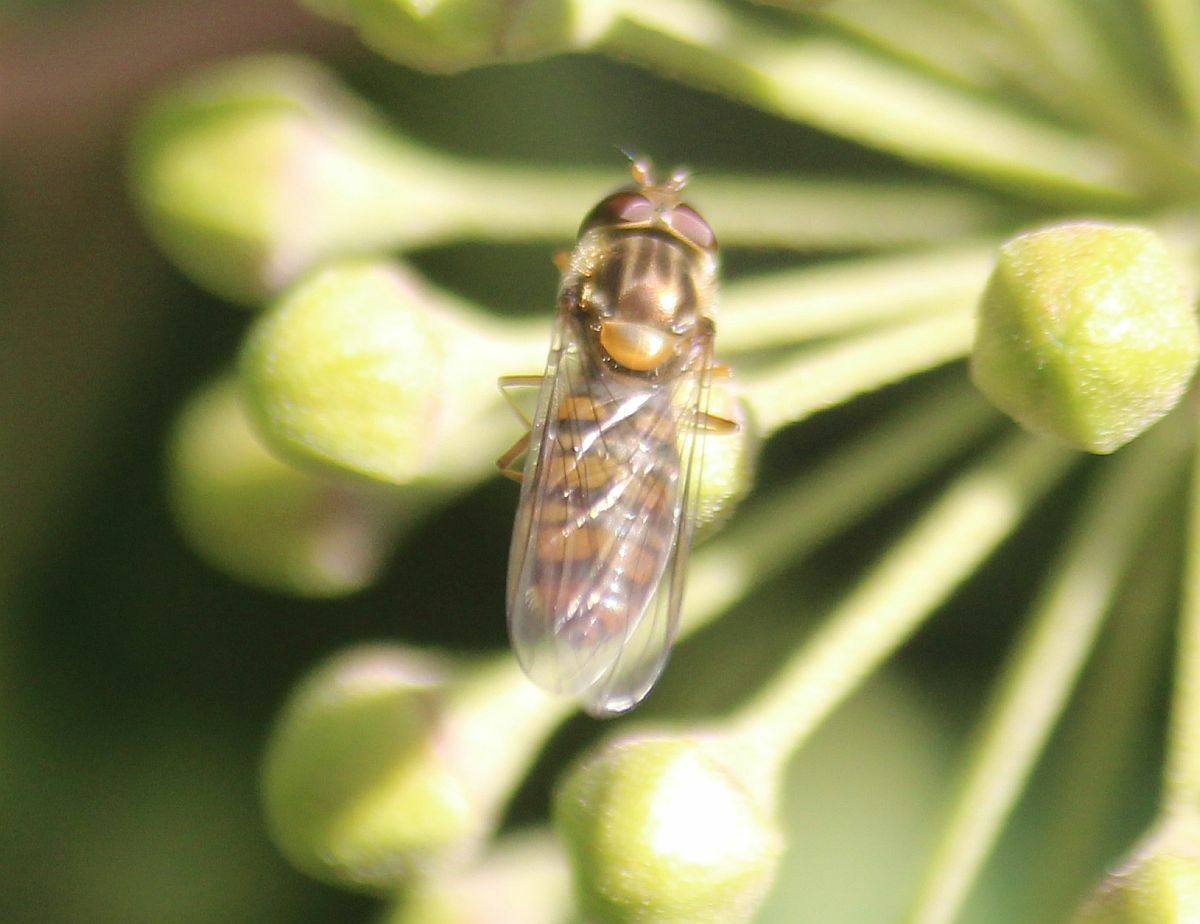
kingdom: Animalia
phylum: Arthropoda
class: Insecta
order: Diptera
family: Syrphidae
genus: Episyrphus
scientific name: Episyrphus balteatus
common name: Marmalade hoverfly
